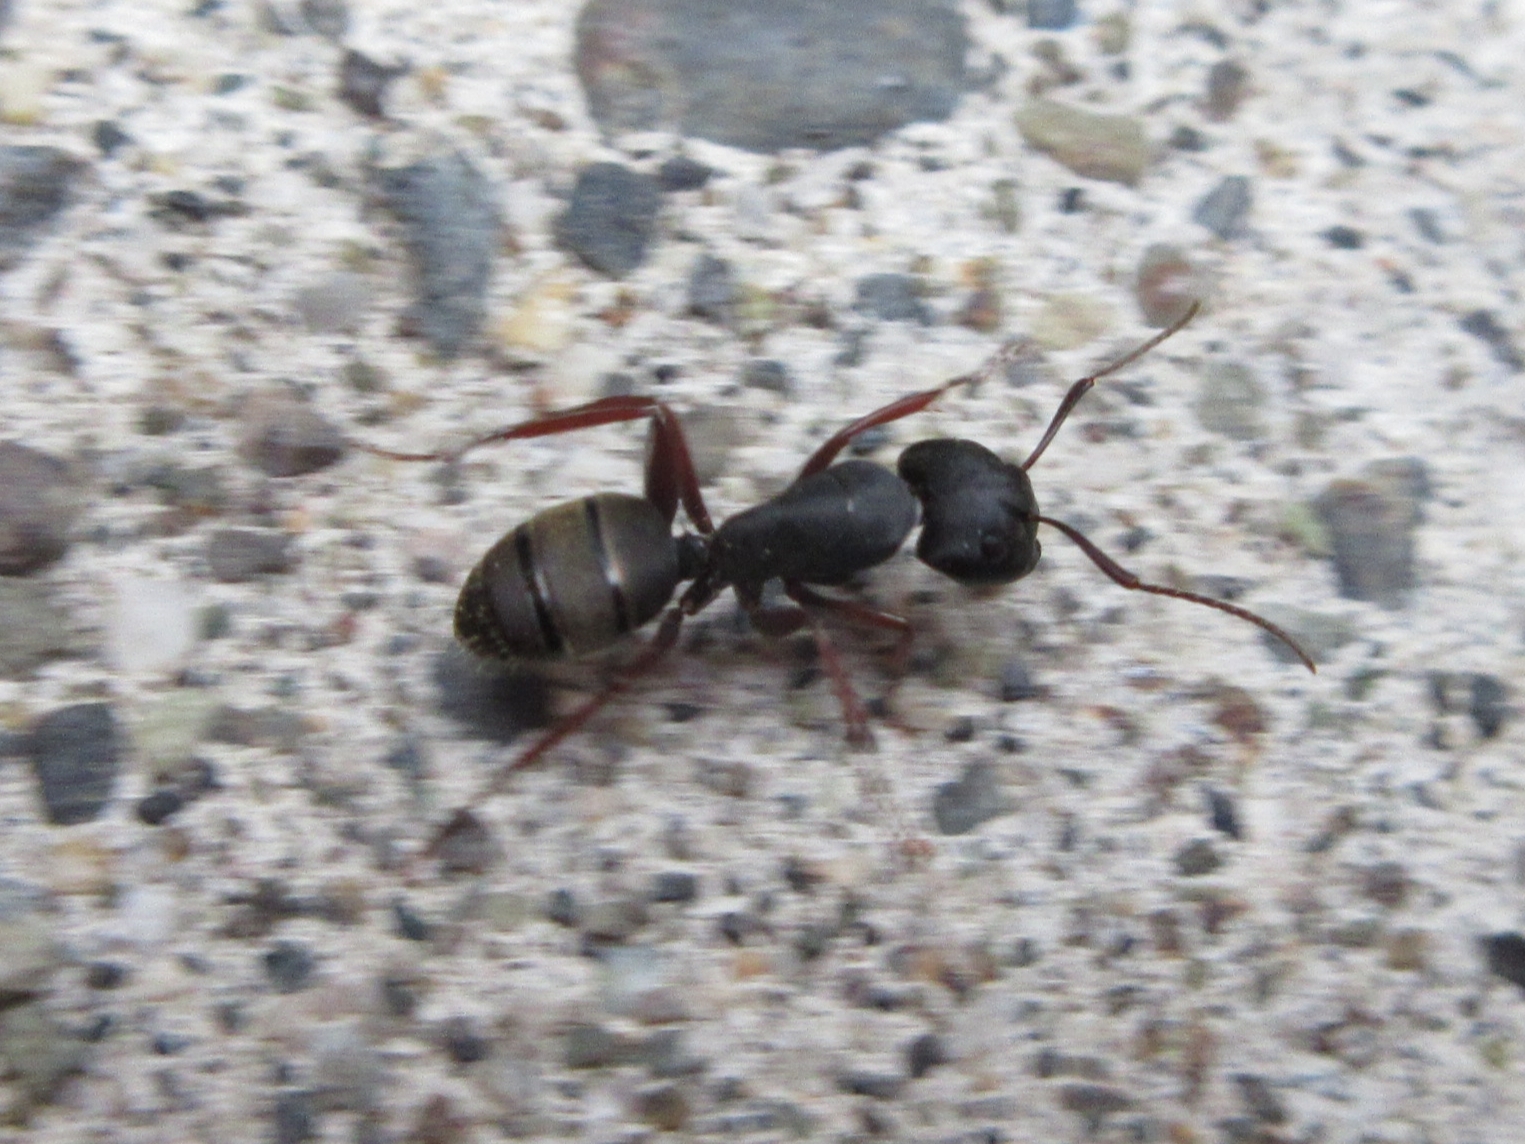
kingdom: Animalia
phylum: Arthropoda
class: Insecta
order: Hymenoptera
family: Formicidae
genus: Camponotus
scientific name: Camponotus modoc
